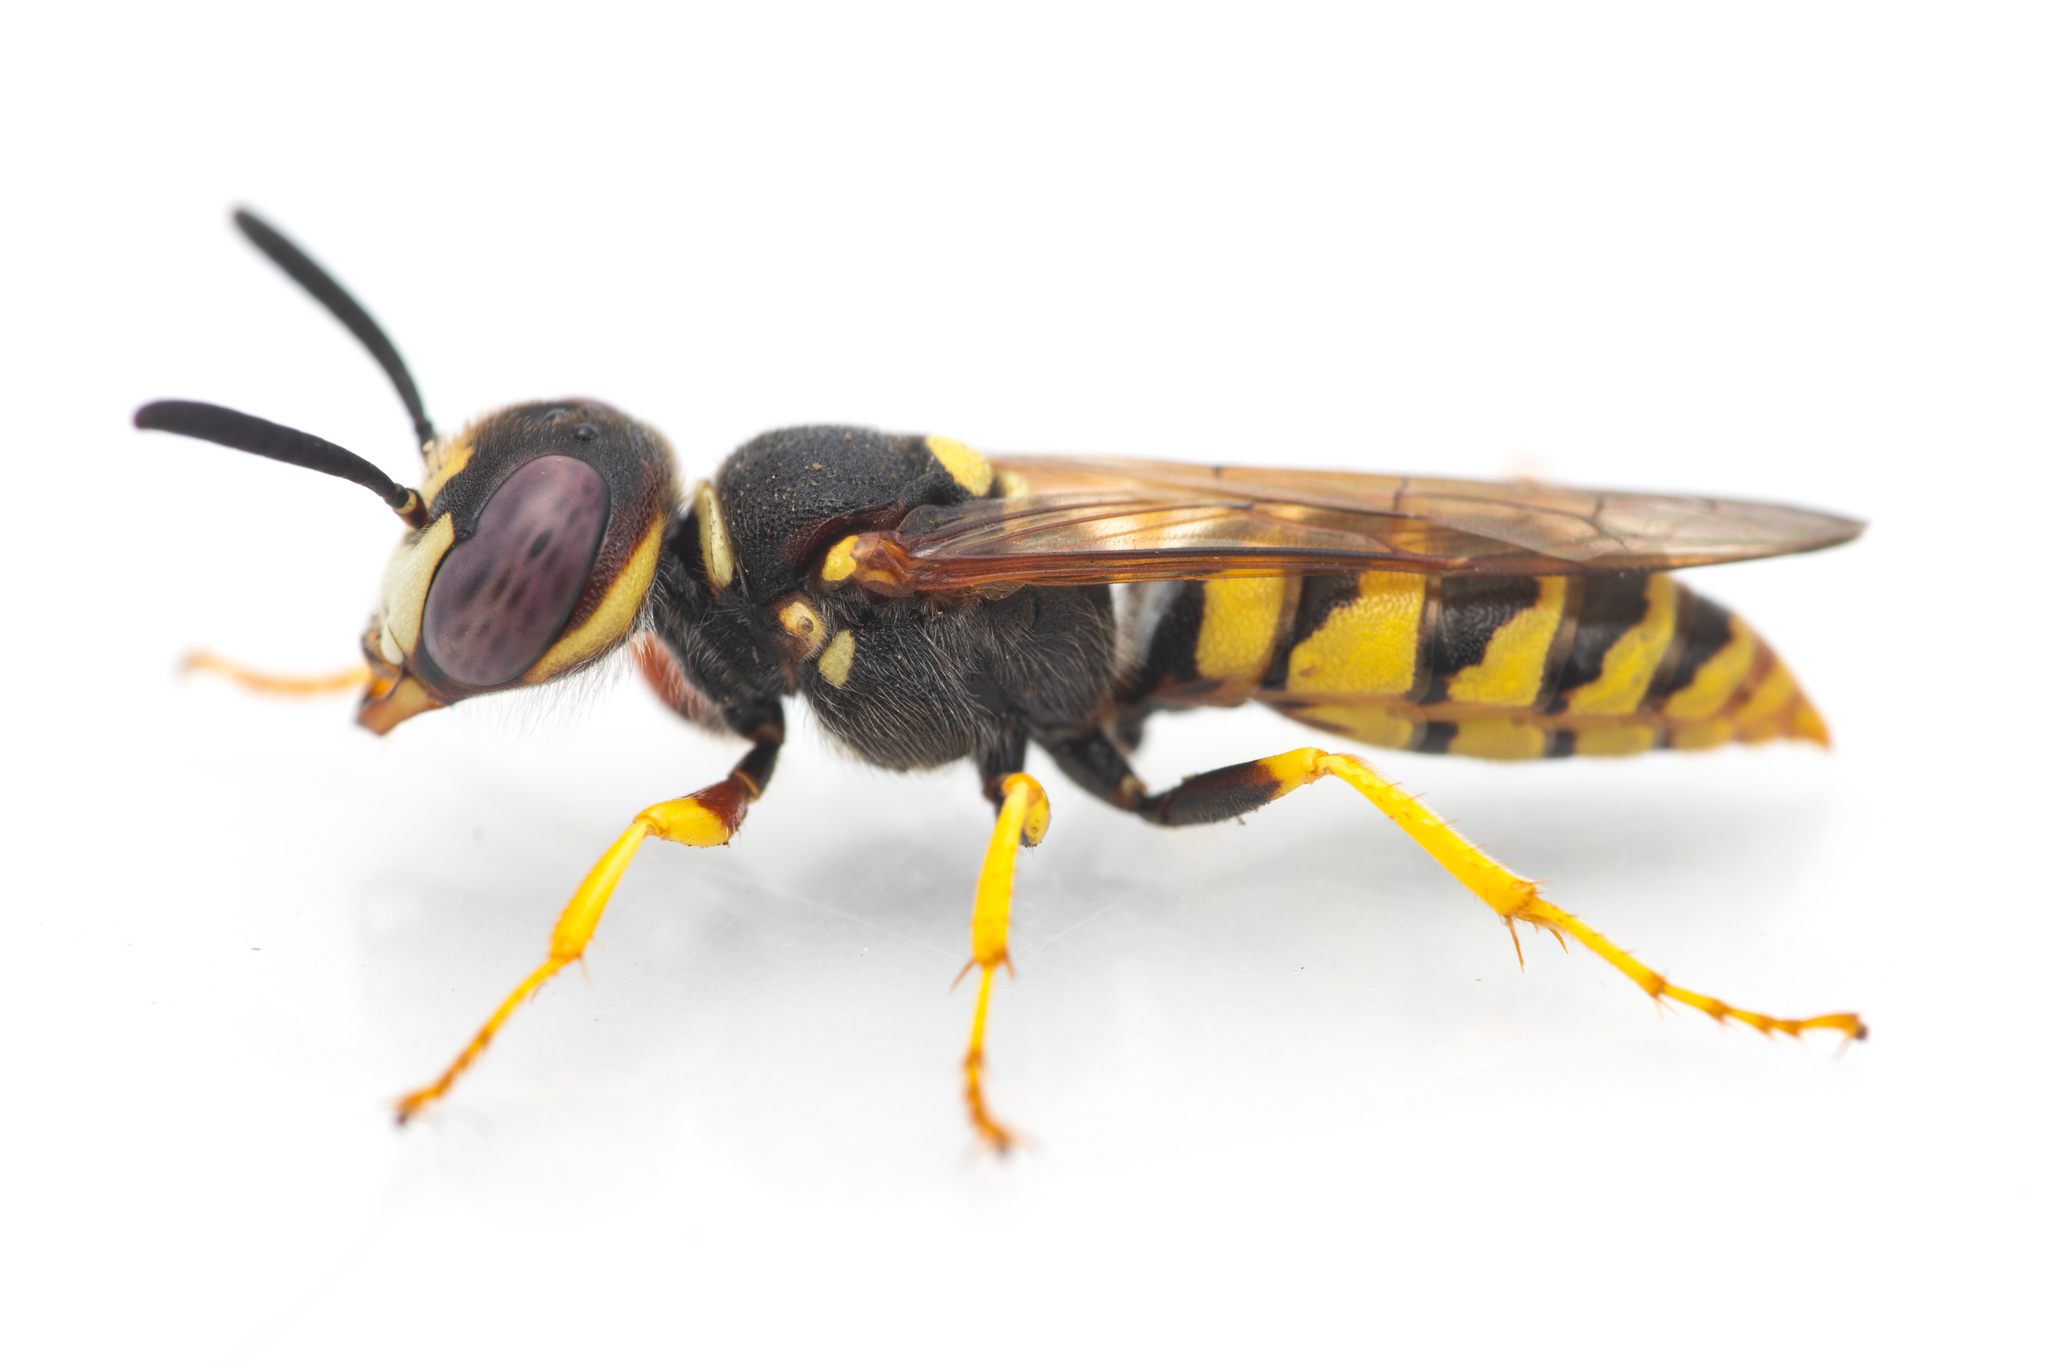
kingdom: Animalia
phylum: Arthropoda
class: Insecta
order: Hymenoptera
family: Crabronidae
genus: Philanthus
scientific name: Philanthus triangulum
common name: Bee wolf
